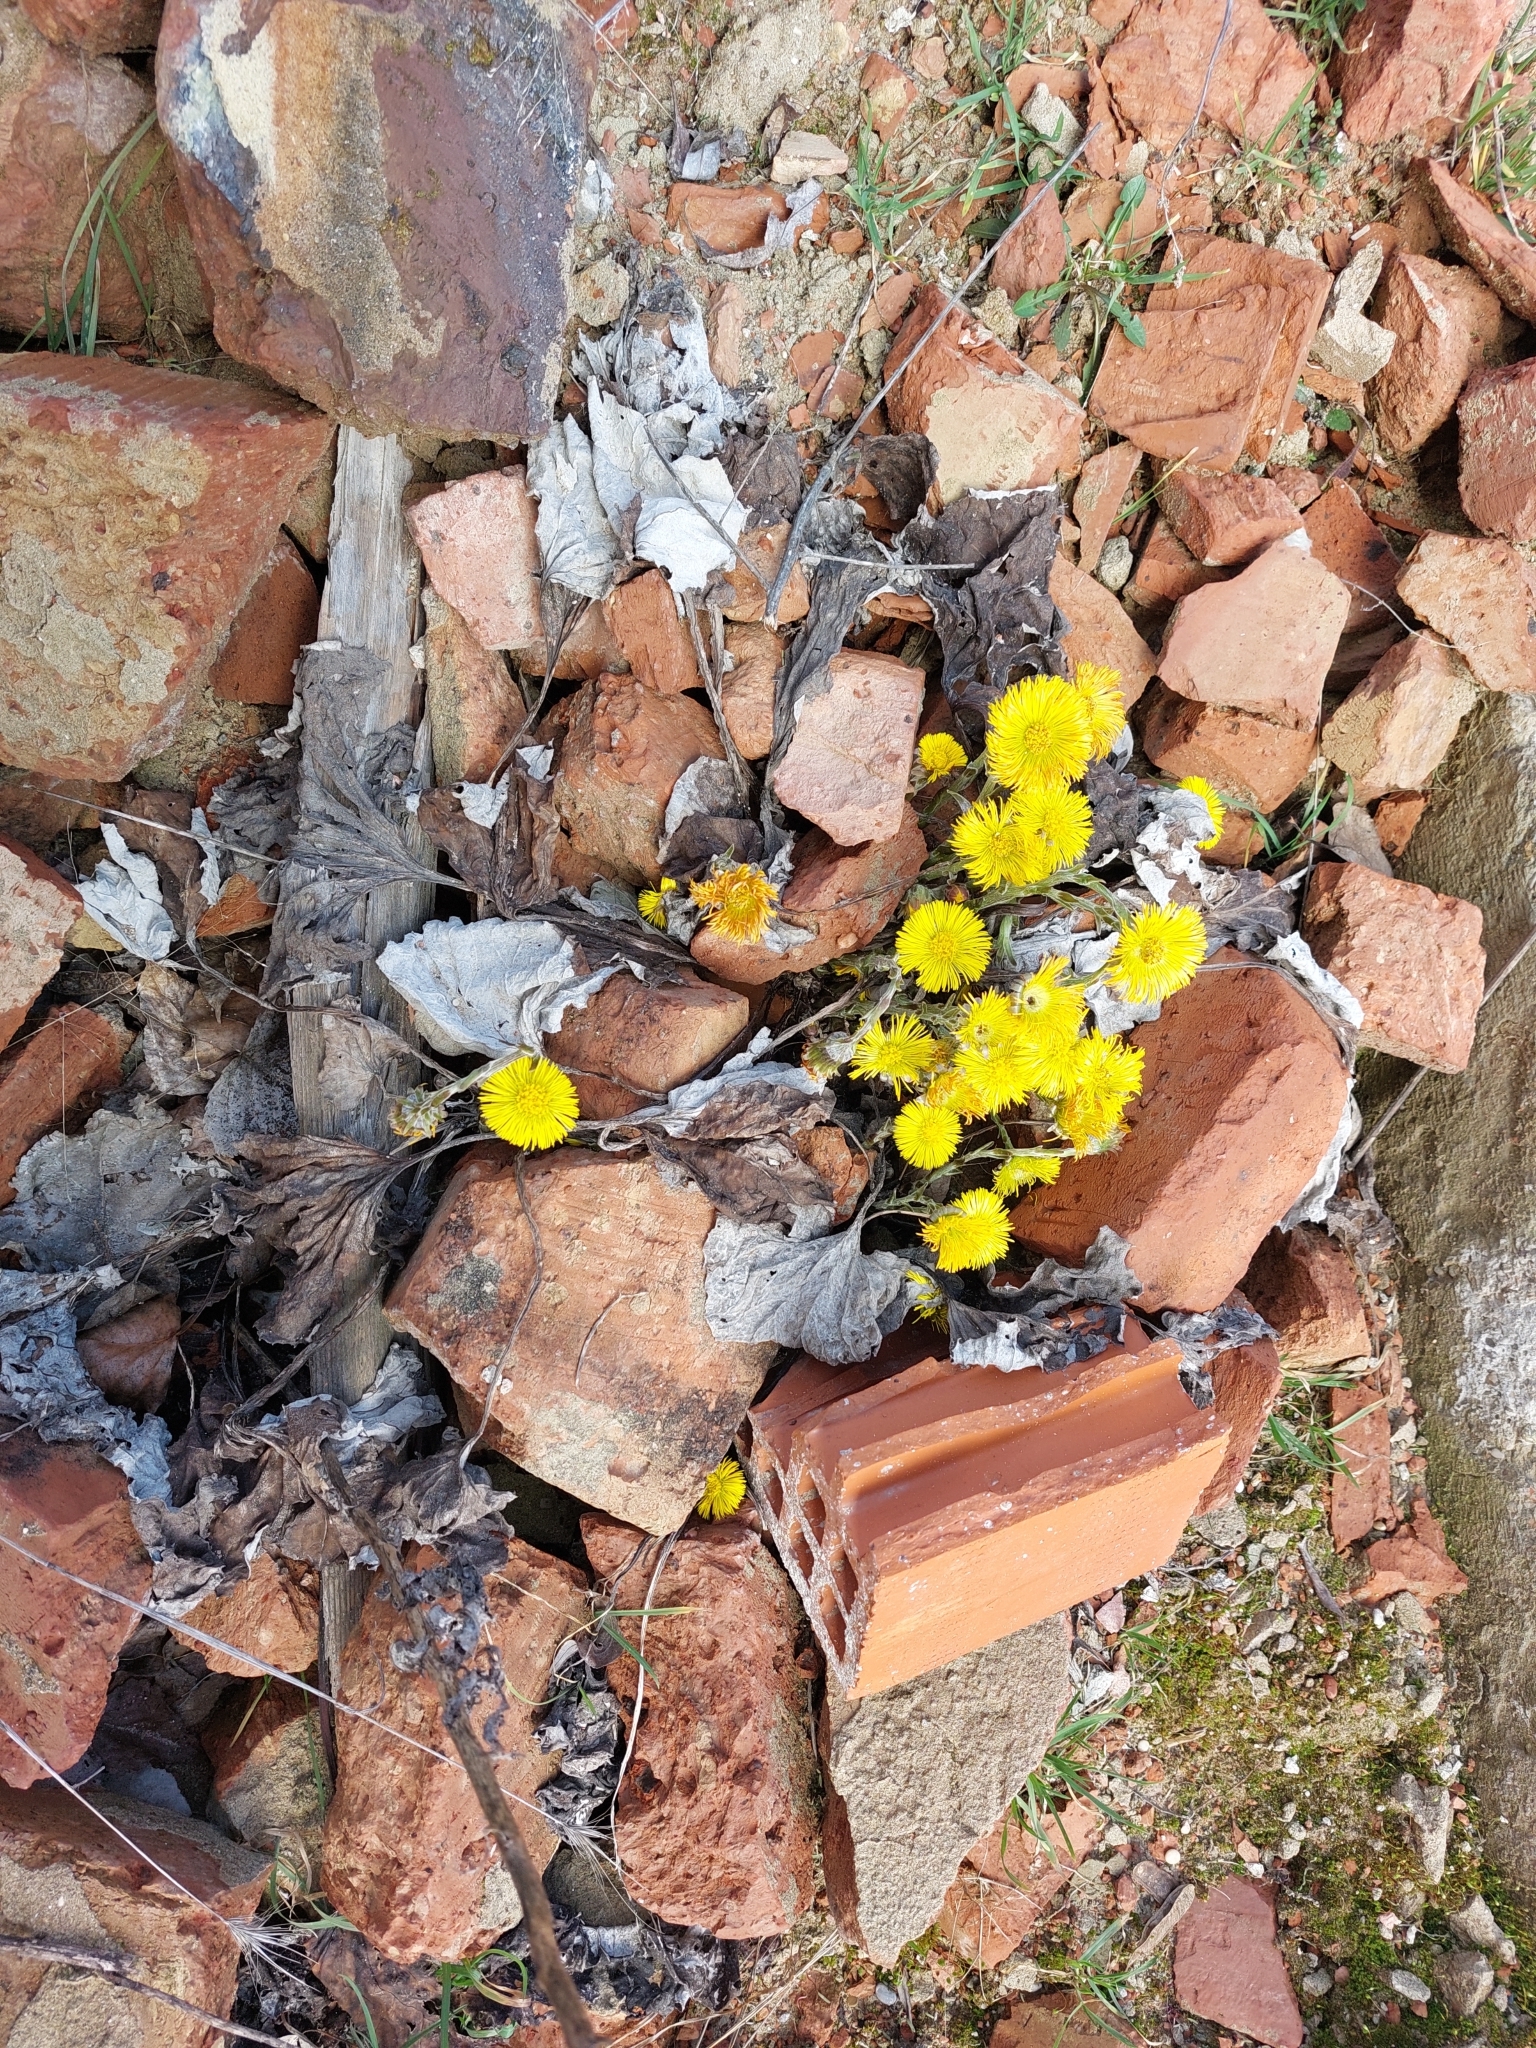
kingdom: Plantae
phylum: Tracheophyta
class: Magnoliopsida
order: Asterales
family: Asteraceae
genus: Tussilago
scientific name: Tussilago farfara
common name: Coltsfoot
